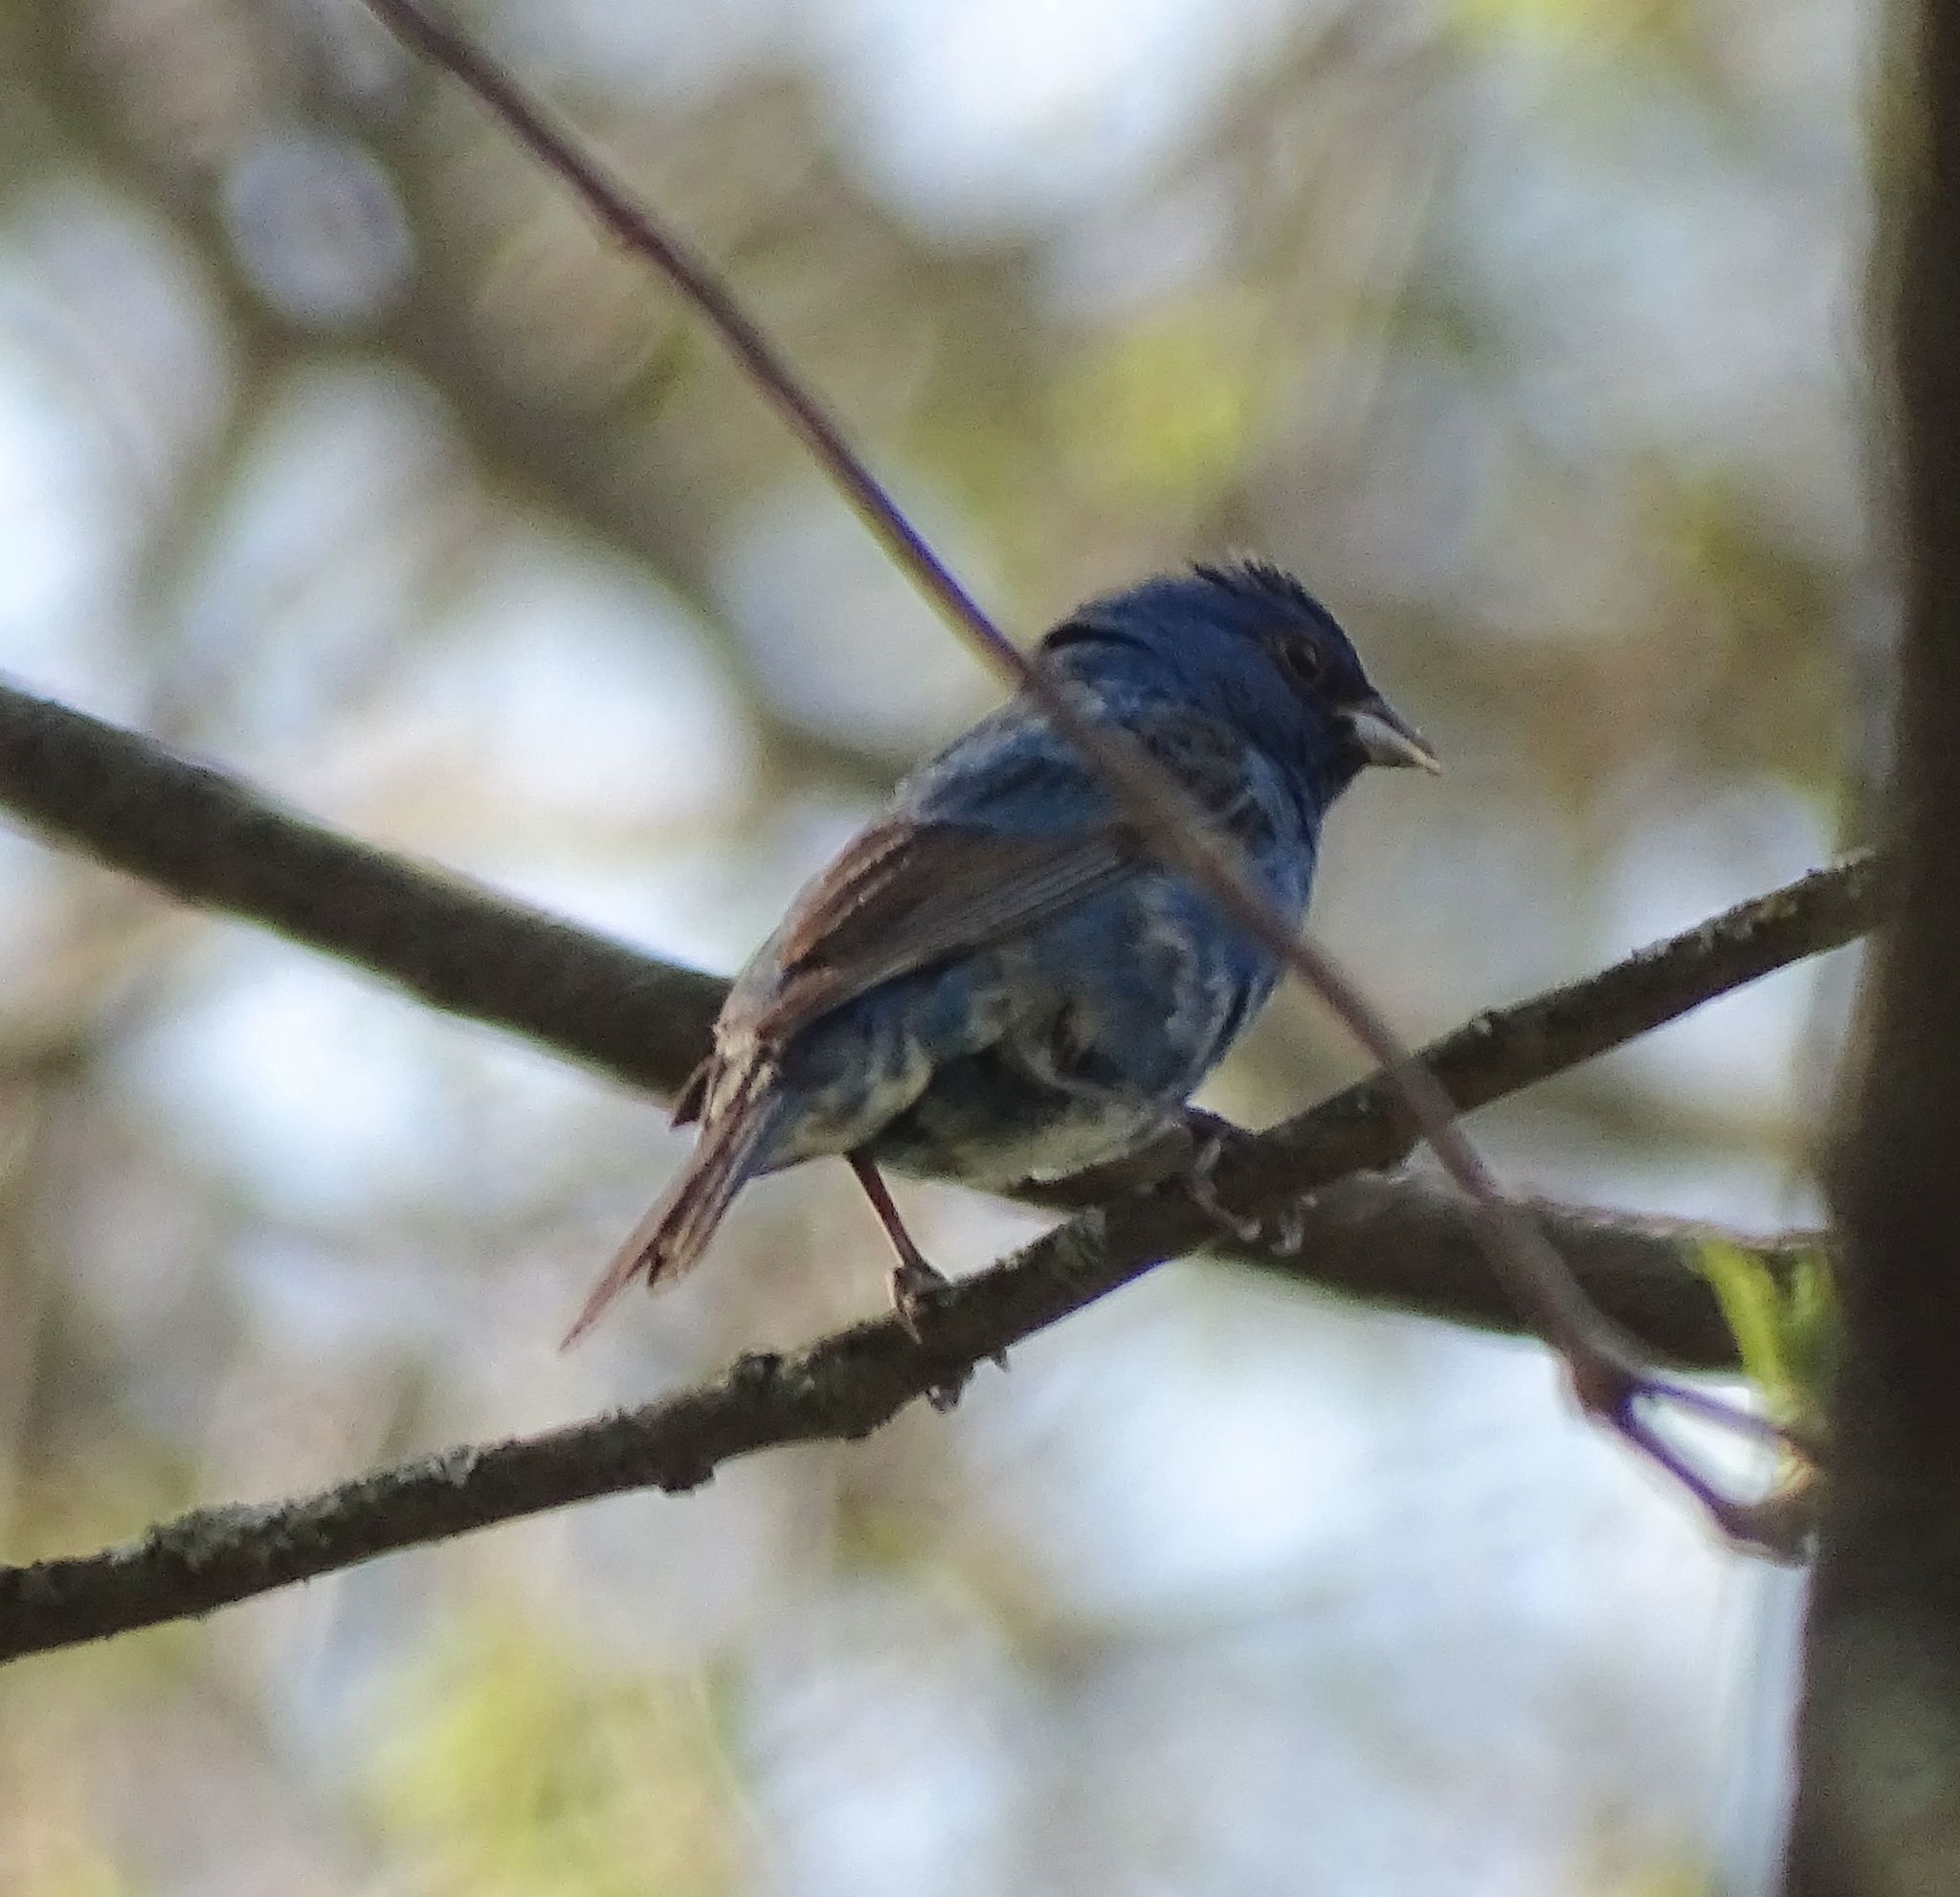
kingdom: Animalia
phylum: Chordata
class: Aves
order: Passeriformes
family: Cardinalidae
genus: Passerina
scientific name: Passerina cyanea
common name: Indigo bunting
